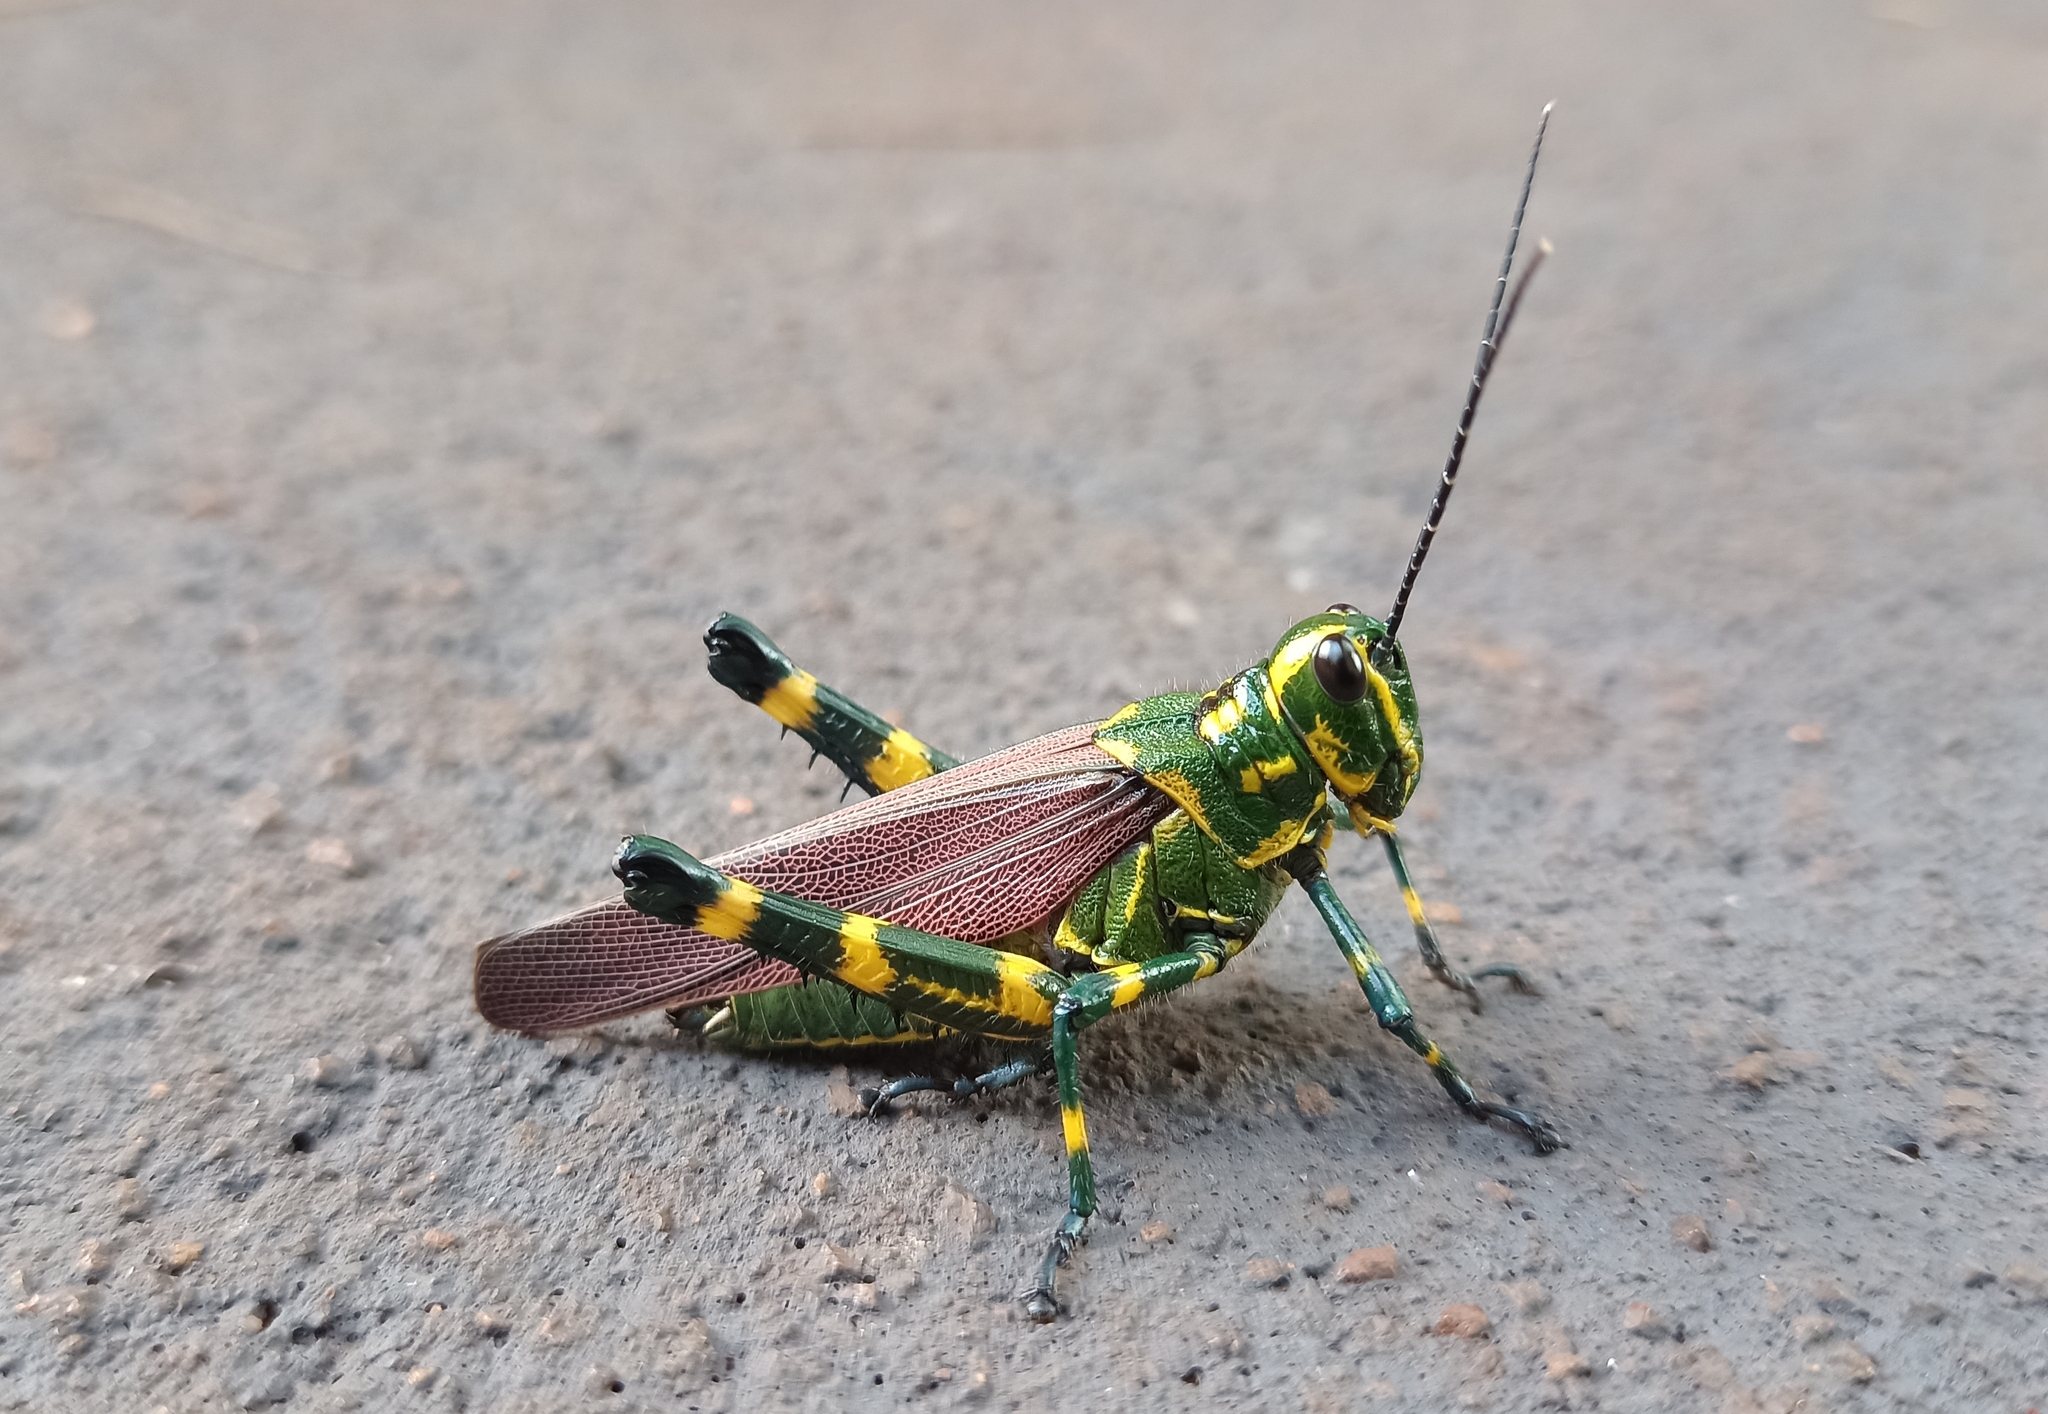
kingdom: Animalia
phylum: Arthropoda
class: Insecta
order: Orthoptera
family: Romaleidae
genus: Chromacris
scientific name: Chromacris speciosa
